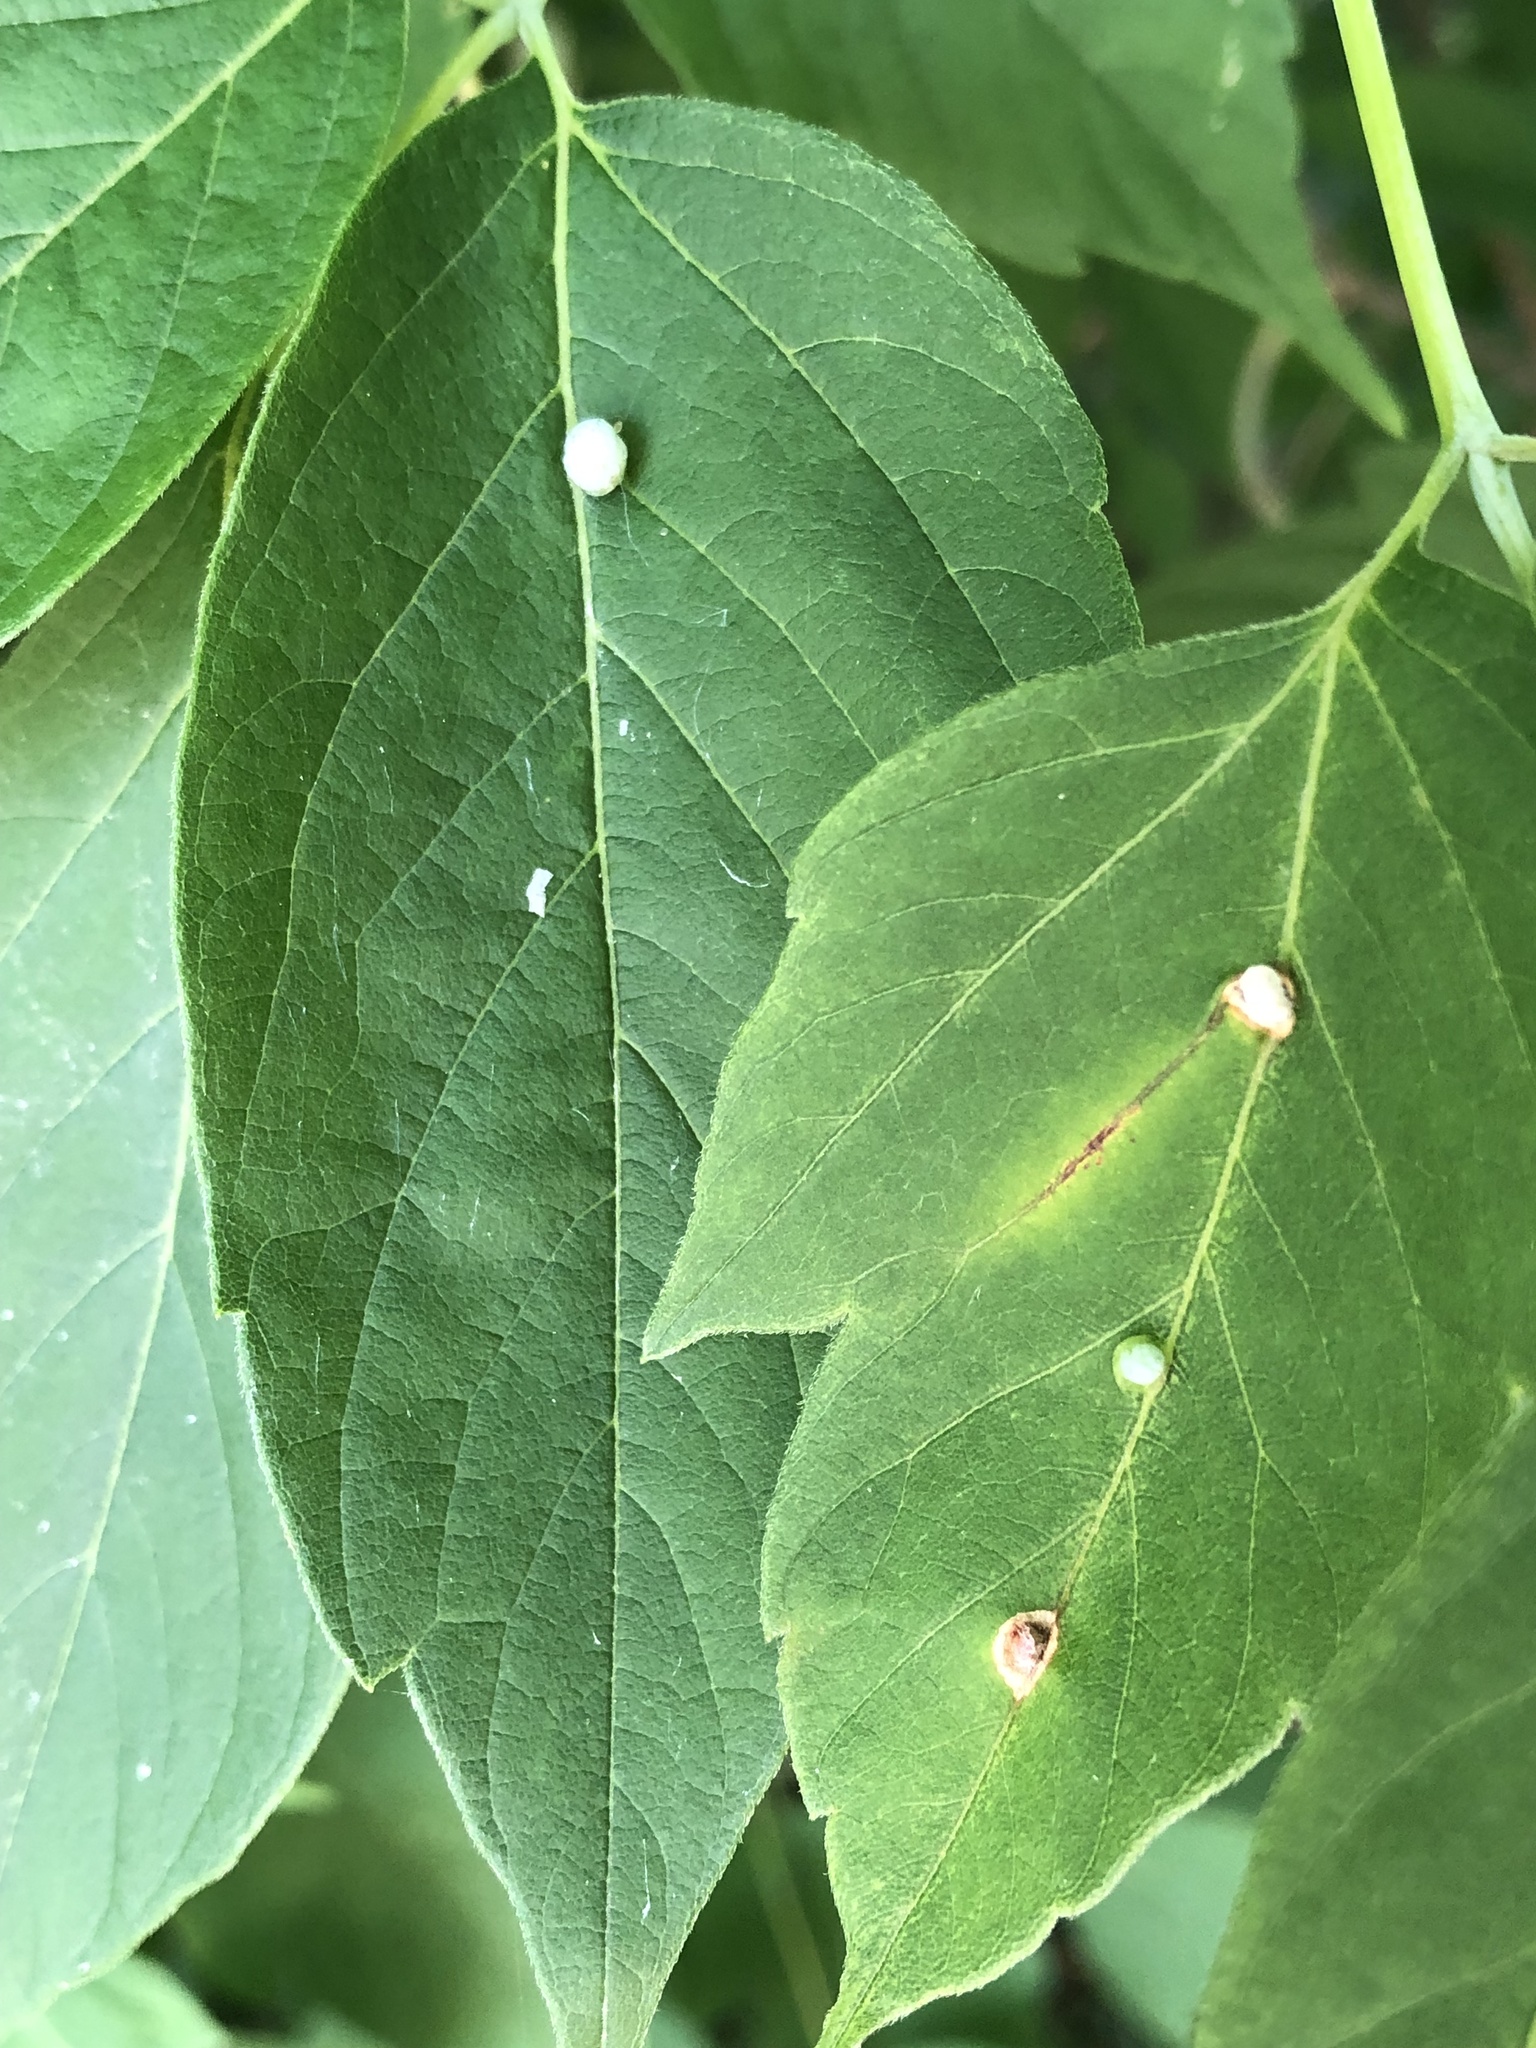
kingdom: Animalia
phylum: Arthropoda
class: Arachnida
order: Trombidiformes
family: Eriophyidae
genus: Aceria
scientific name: Aceria
